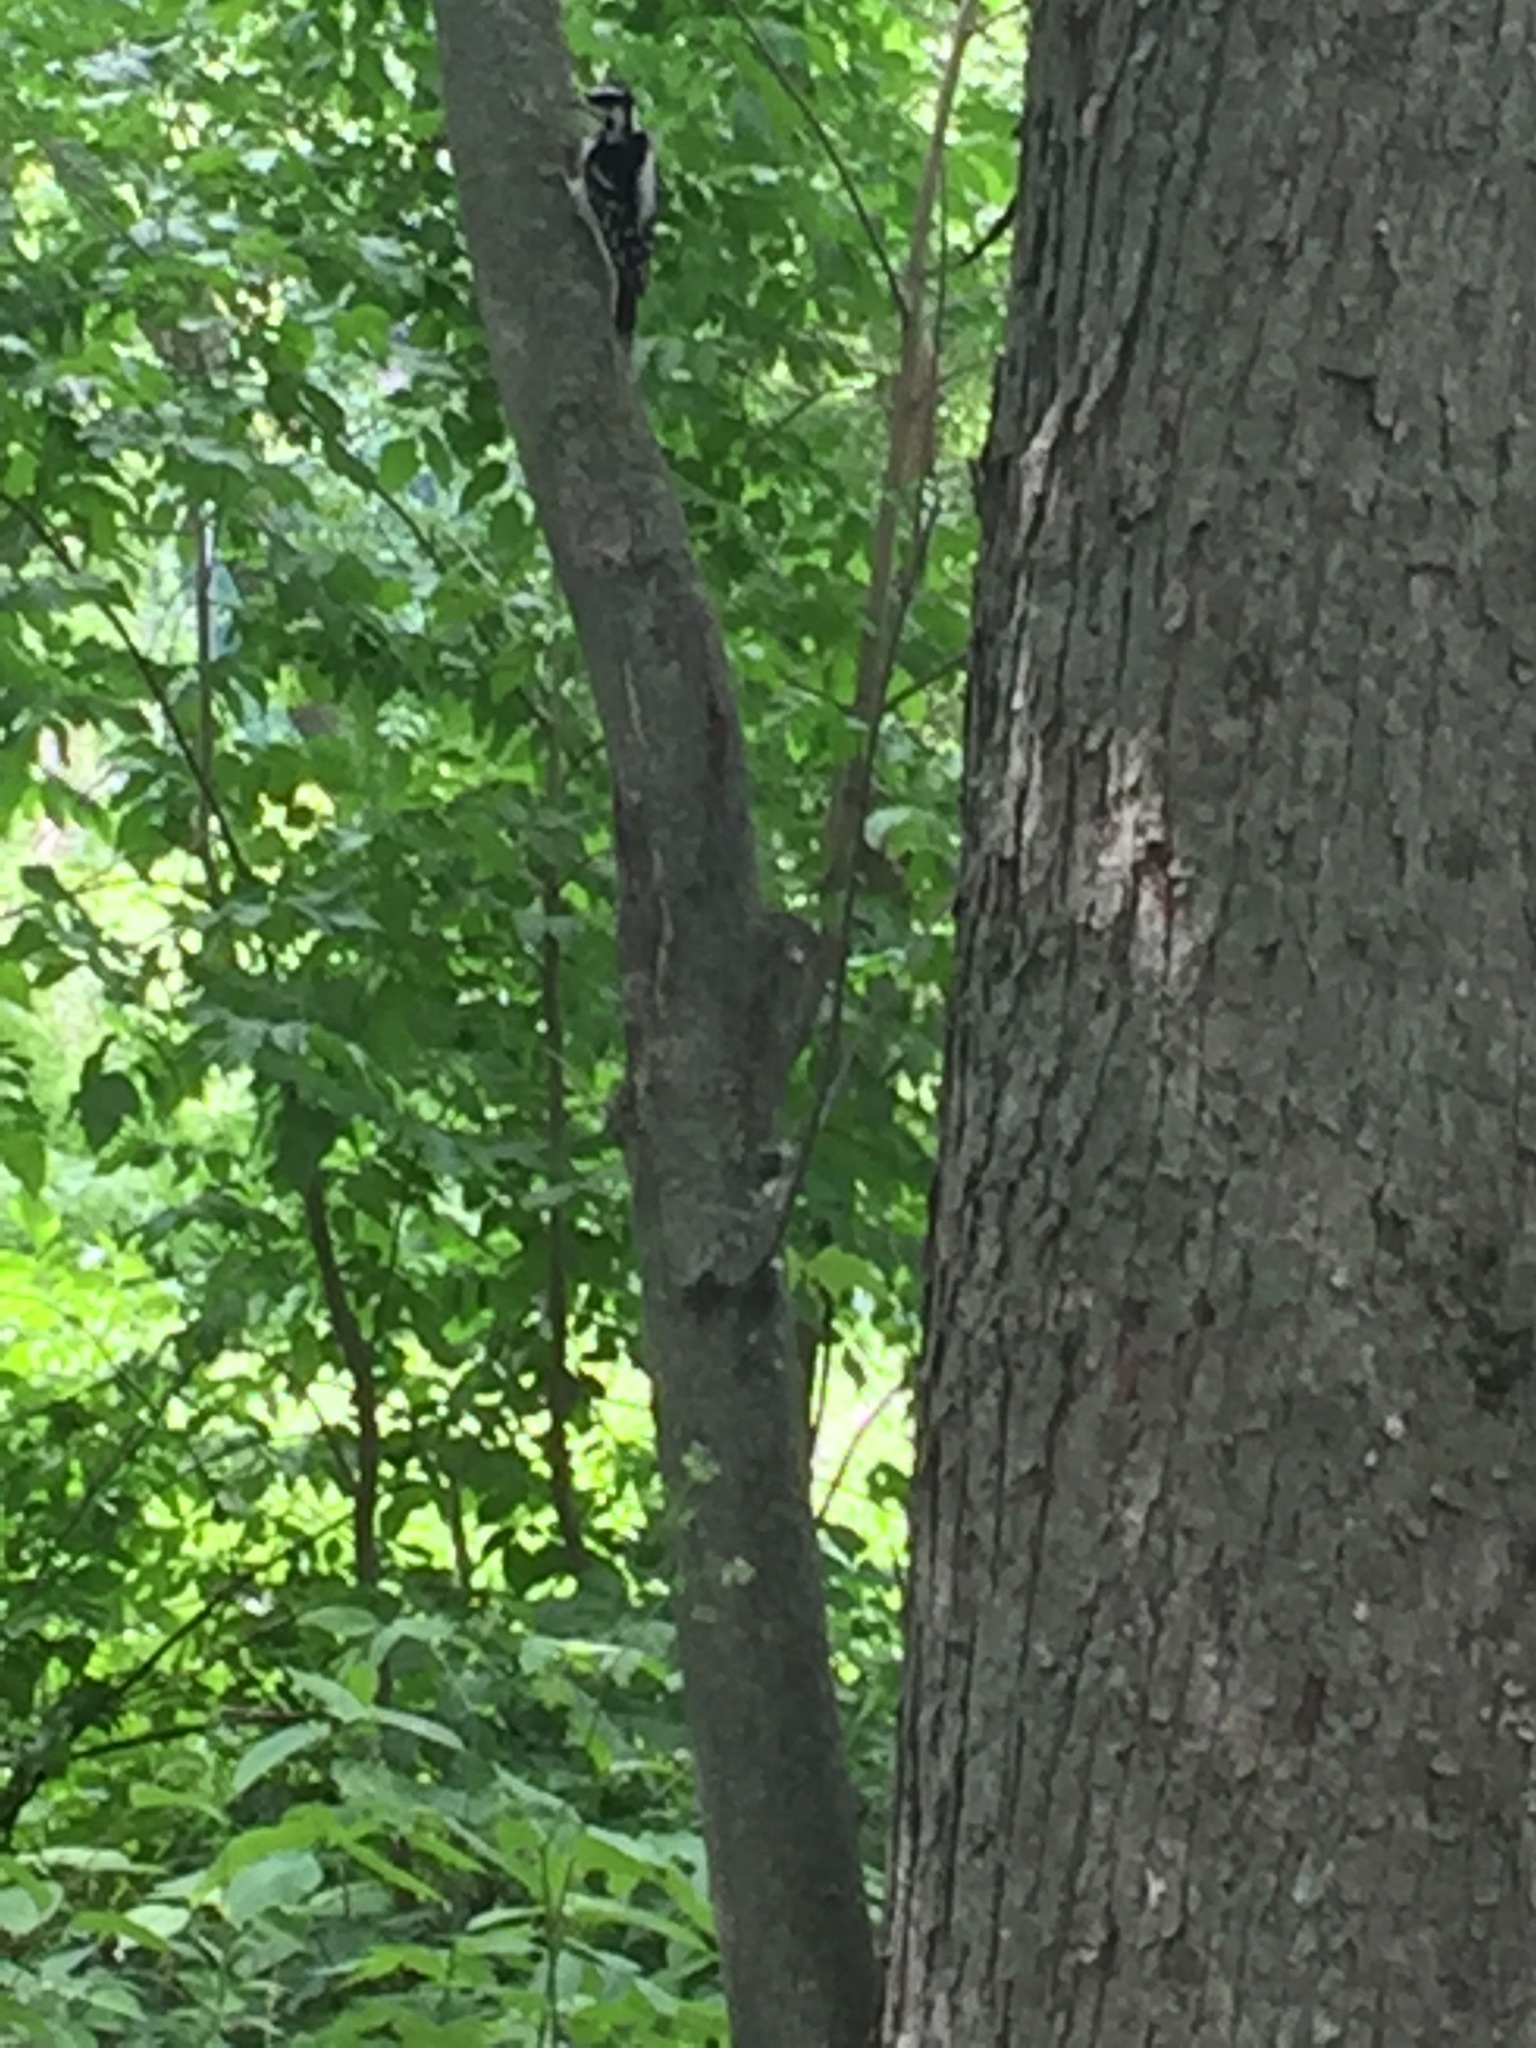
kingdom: Animalia
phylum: Chordata
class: Aves
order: Piciformes
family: Picidae
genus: Leuconotopicus
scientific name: Leuconotopicus villosus
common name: Hairy woodpecker
